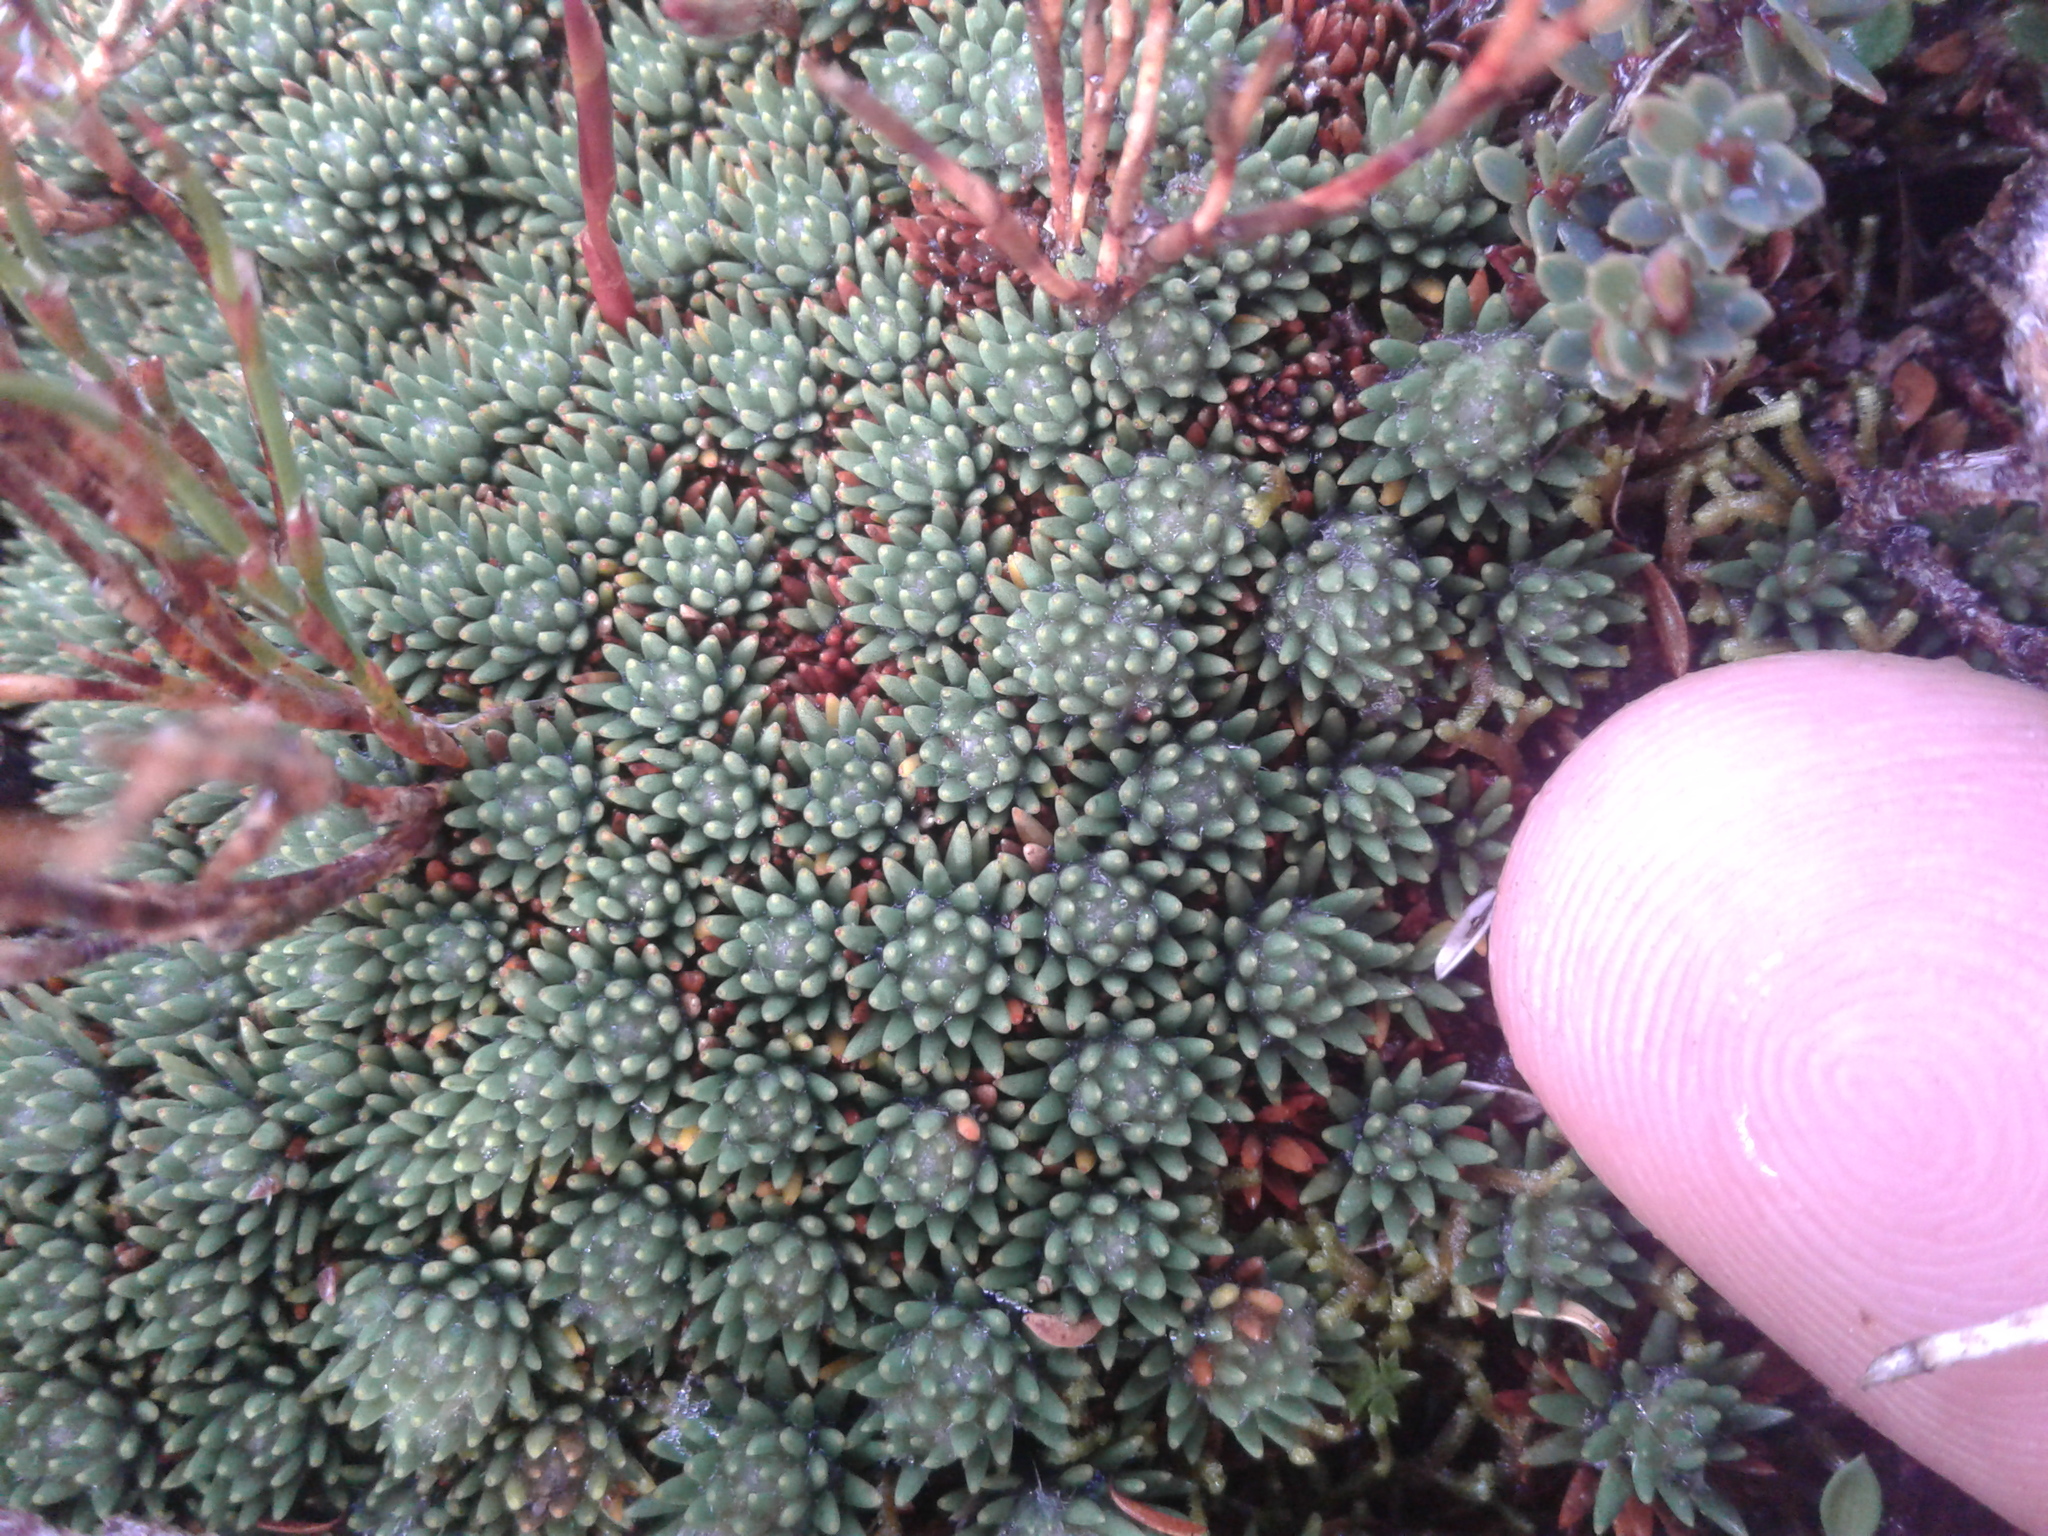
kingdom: Plantae
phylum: Tracheophyta
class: Magnoliopsida
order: Asterales
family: Stylidiaceae
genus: Donatia
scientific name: Donatia novae-zelandiae
